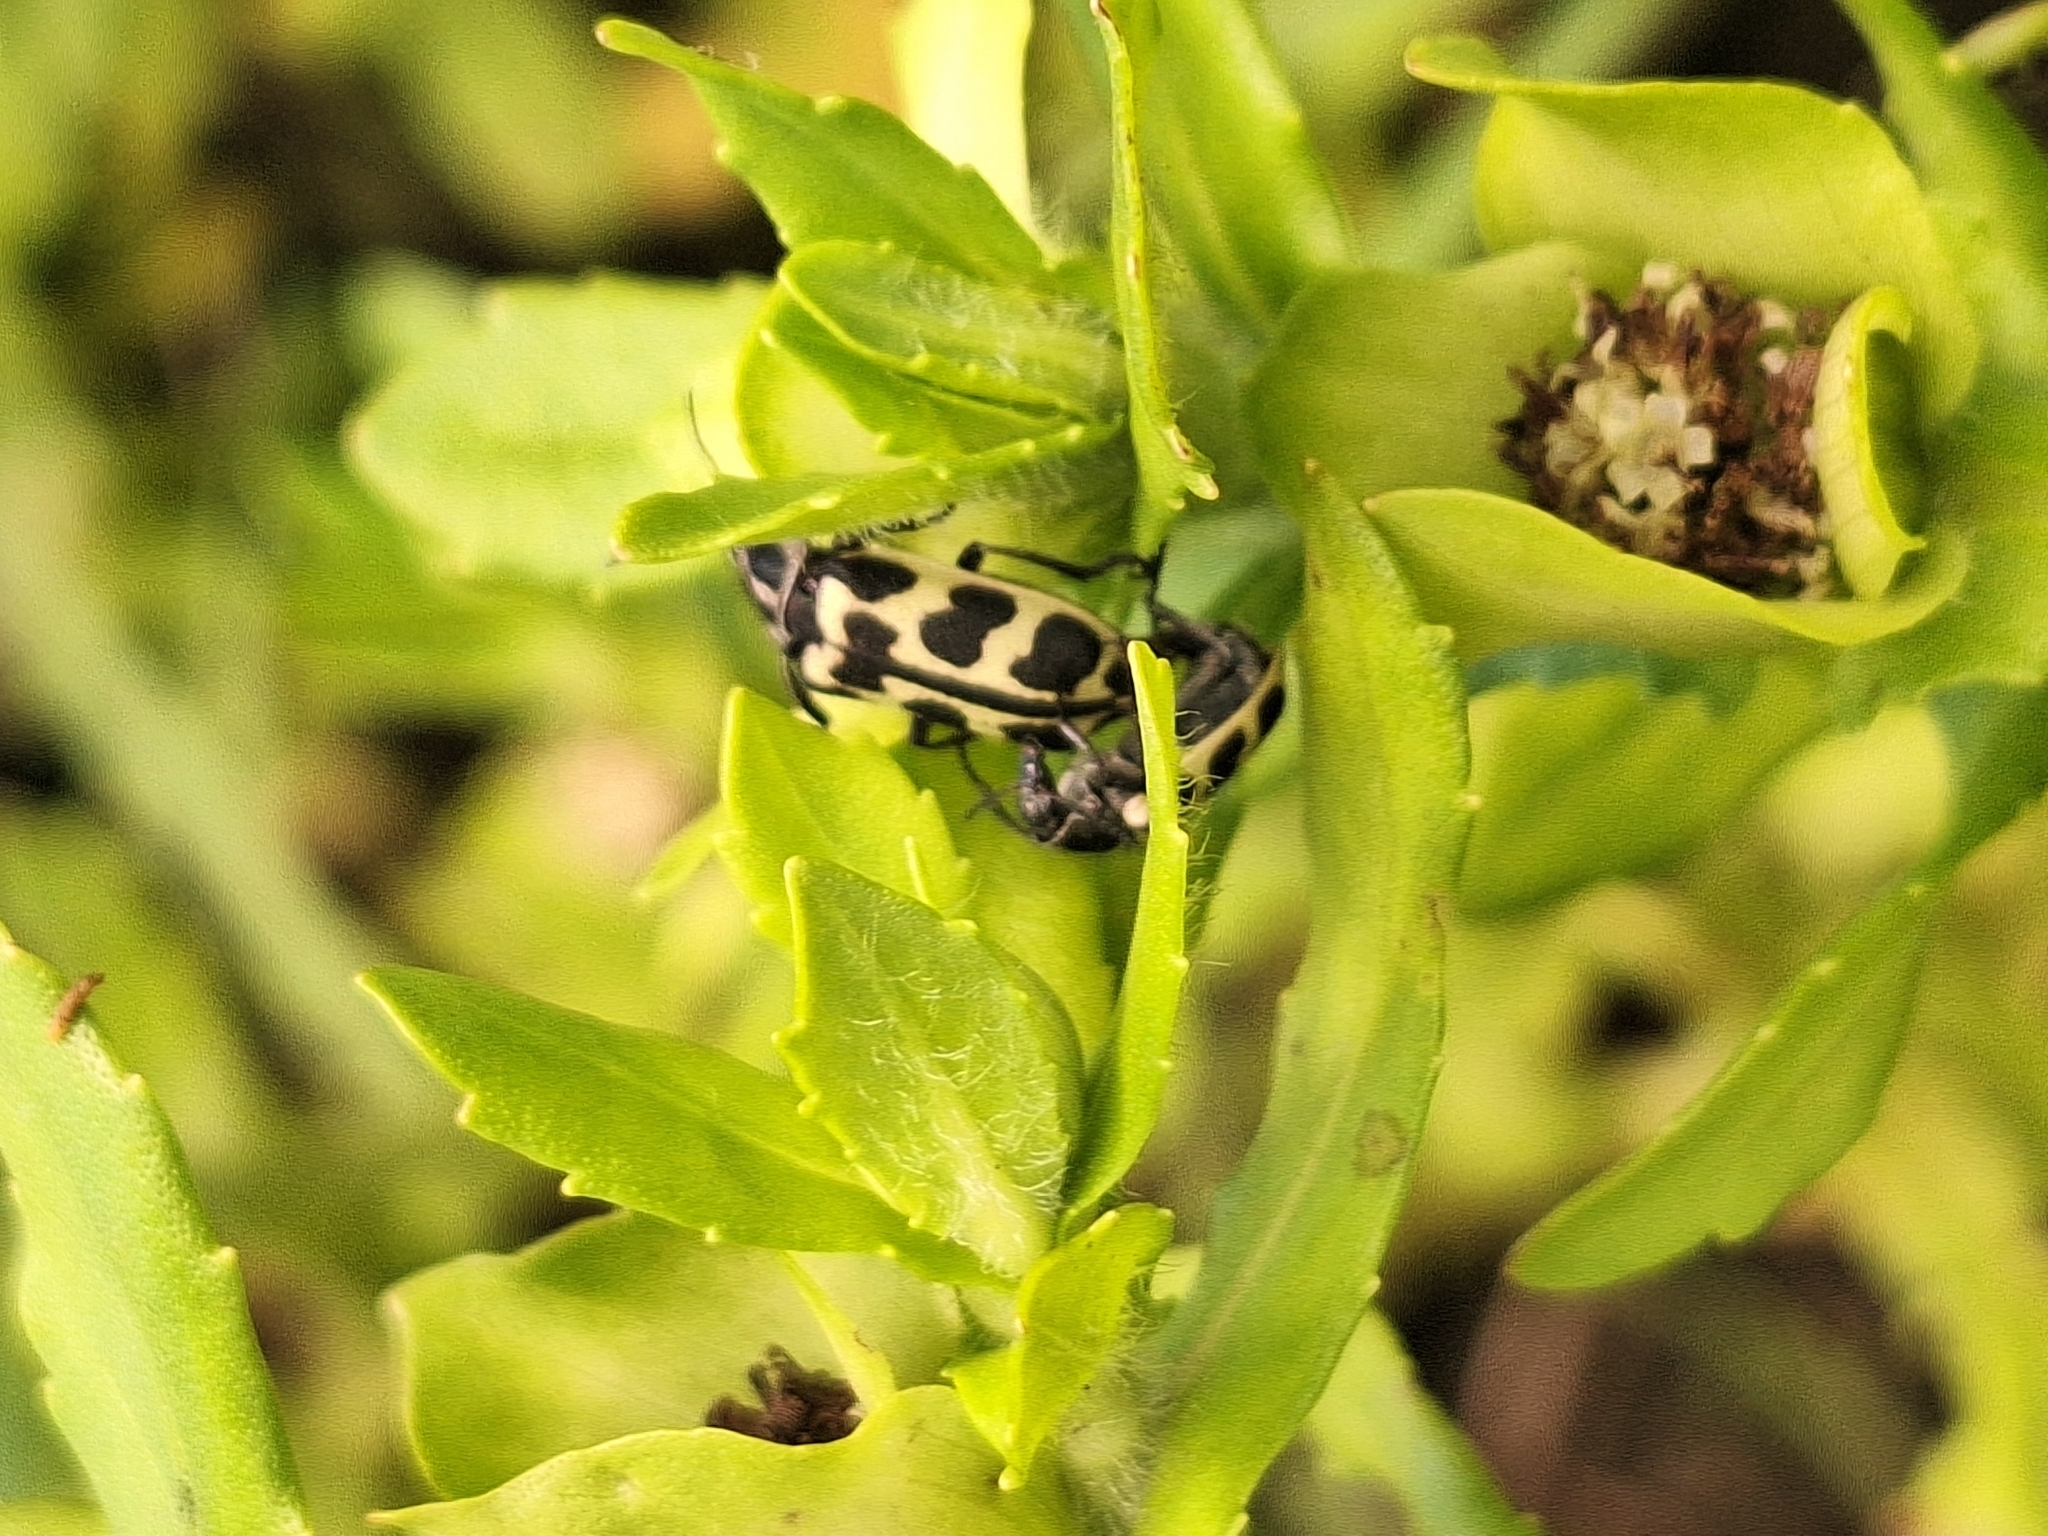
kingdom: Animalia
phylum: Arthropoda
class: Insecta
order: Coleoptera
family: Melyridae
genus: Astylus
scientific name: Astylus atromaculatus
